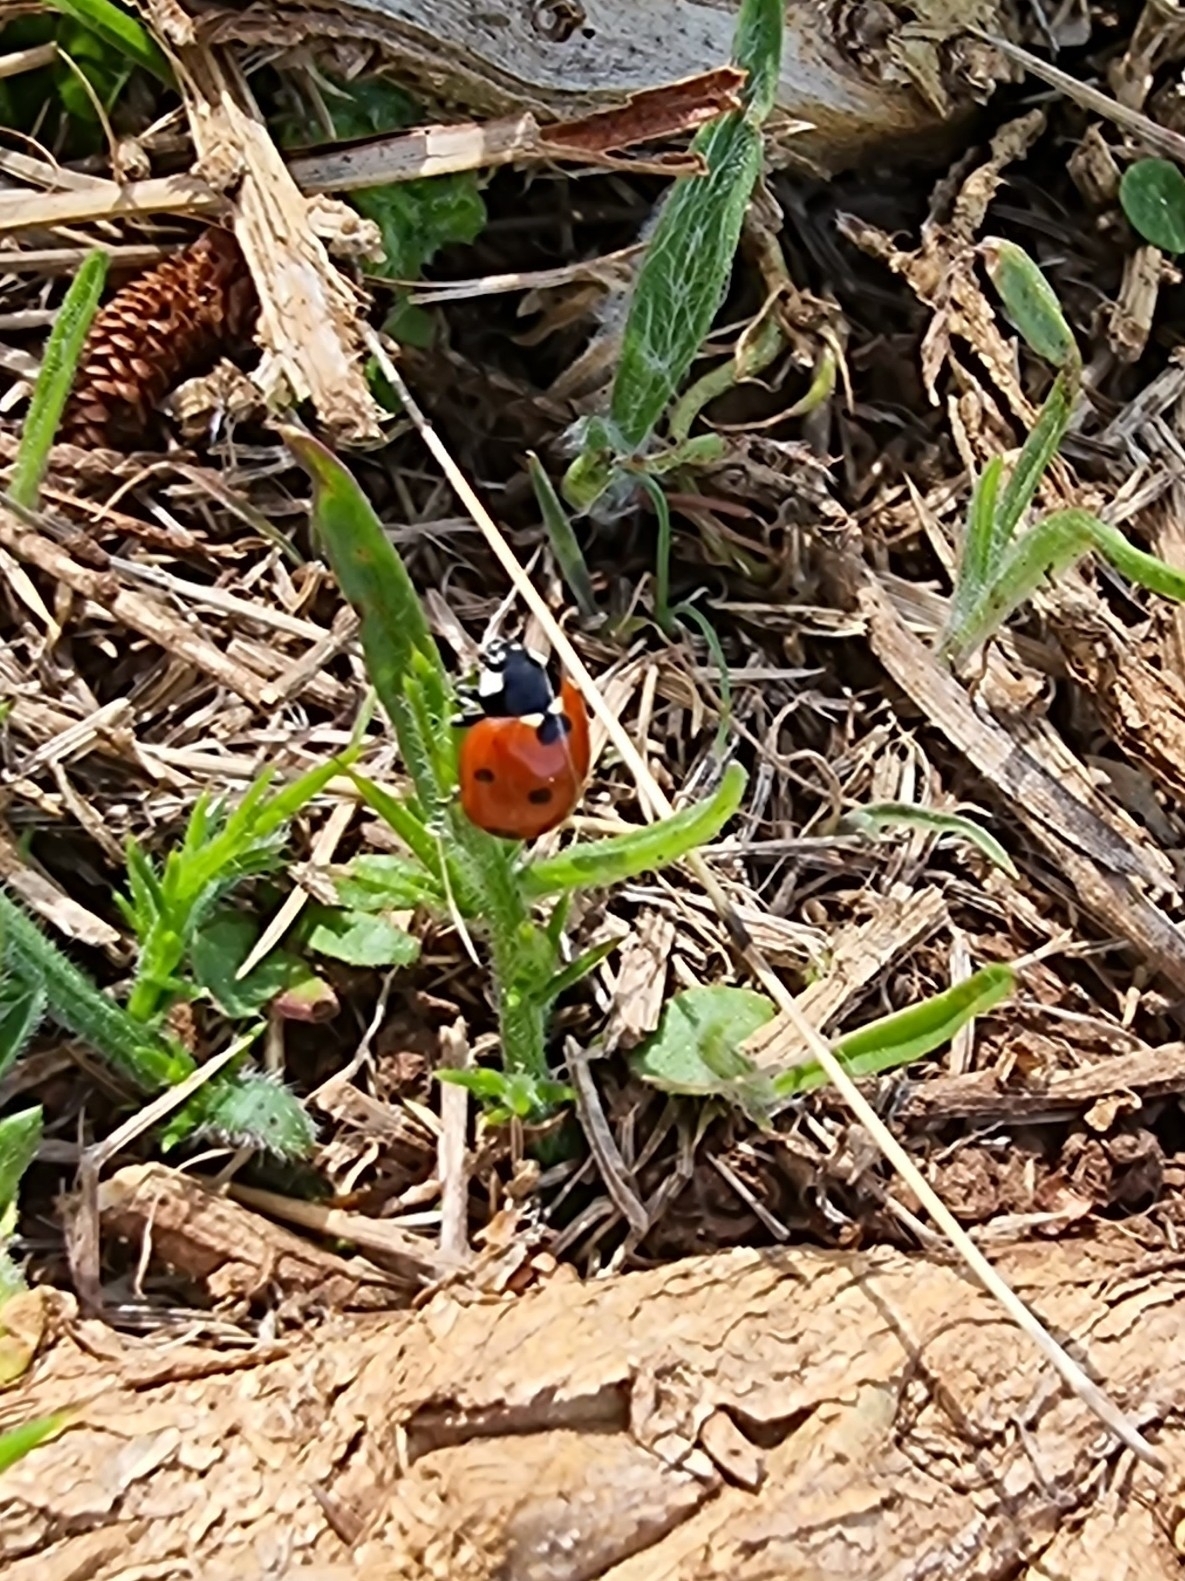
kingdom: Animalia
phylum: Arthropoda
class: Insecta
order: Coleoptera
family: Coccinellidae
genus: Coccinella
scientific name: Coccinella septempunctata
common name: Sevenspotted lady beetle
